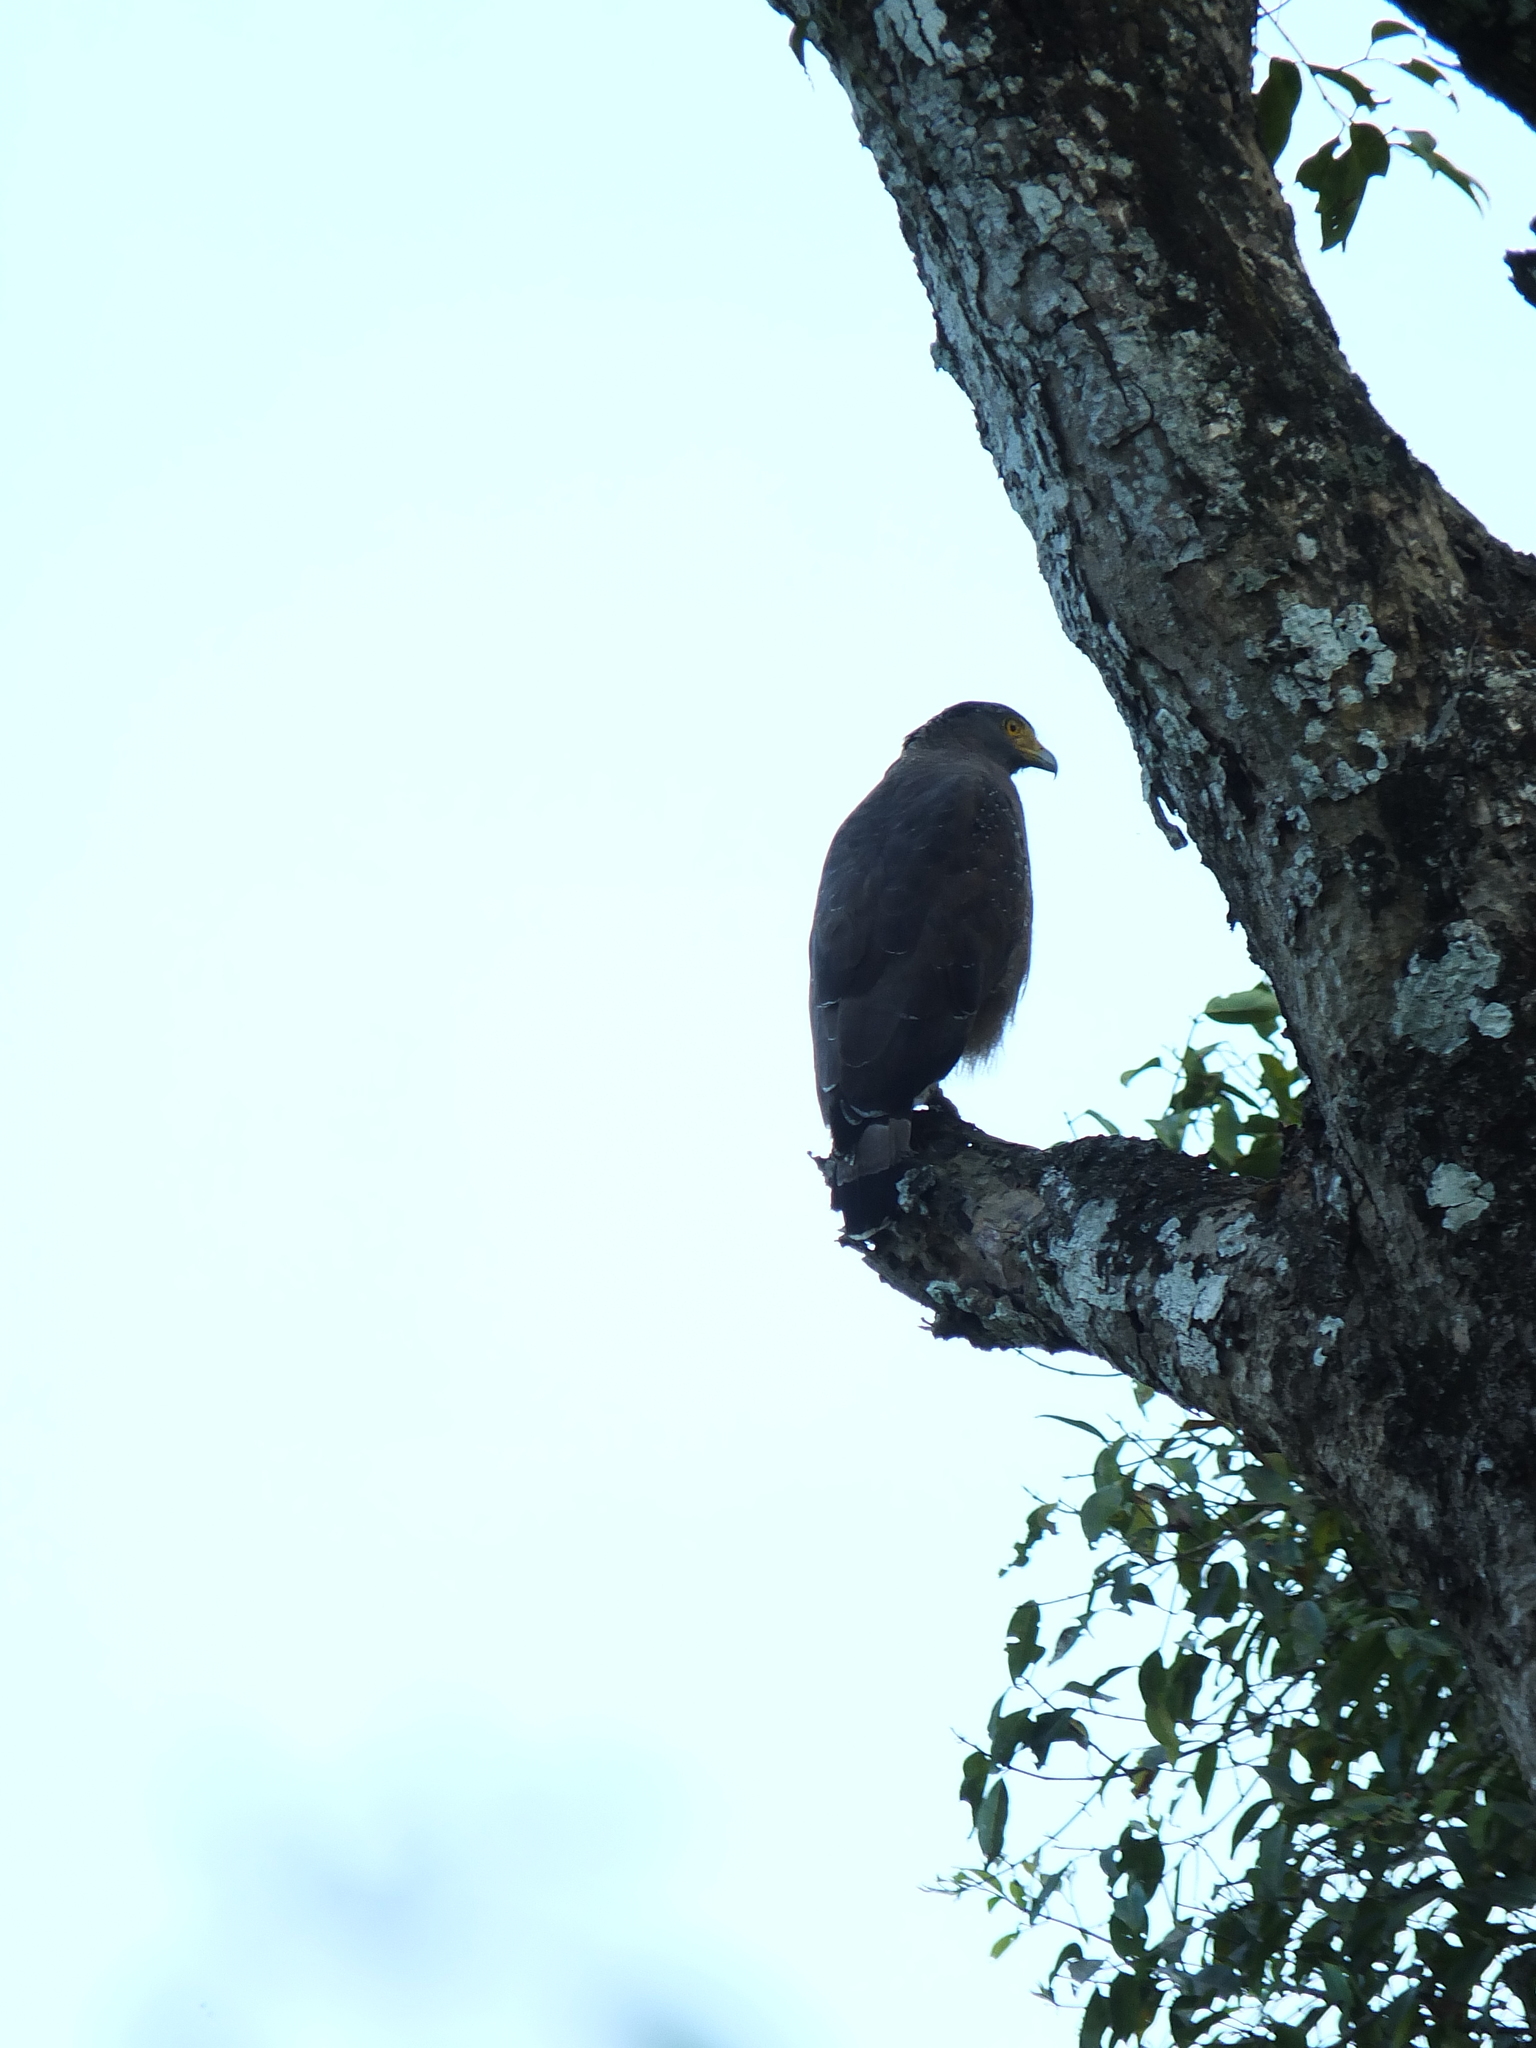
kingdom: Animalia
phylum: Chordata
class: Aves
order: Accipitriformes
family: Accipitridae
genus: Spilornis
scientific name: Spilornis cheela
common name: Crested serpent eagle
